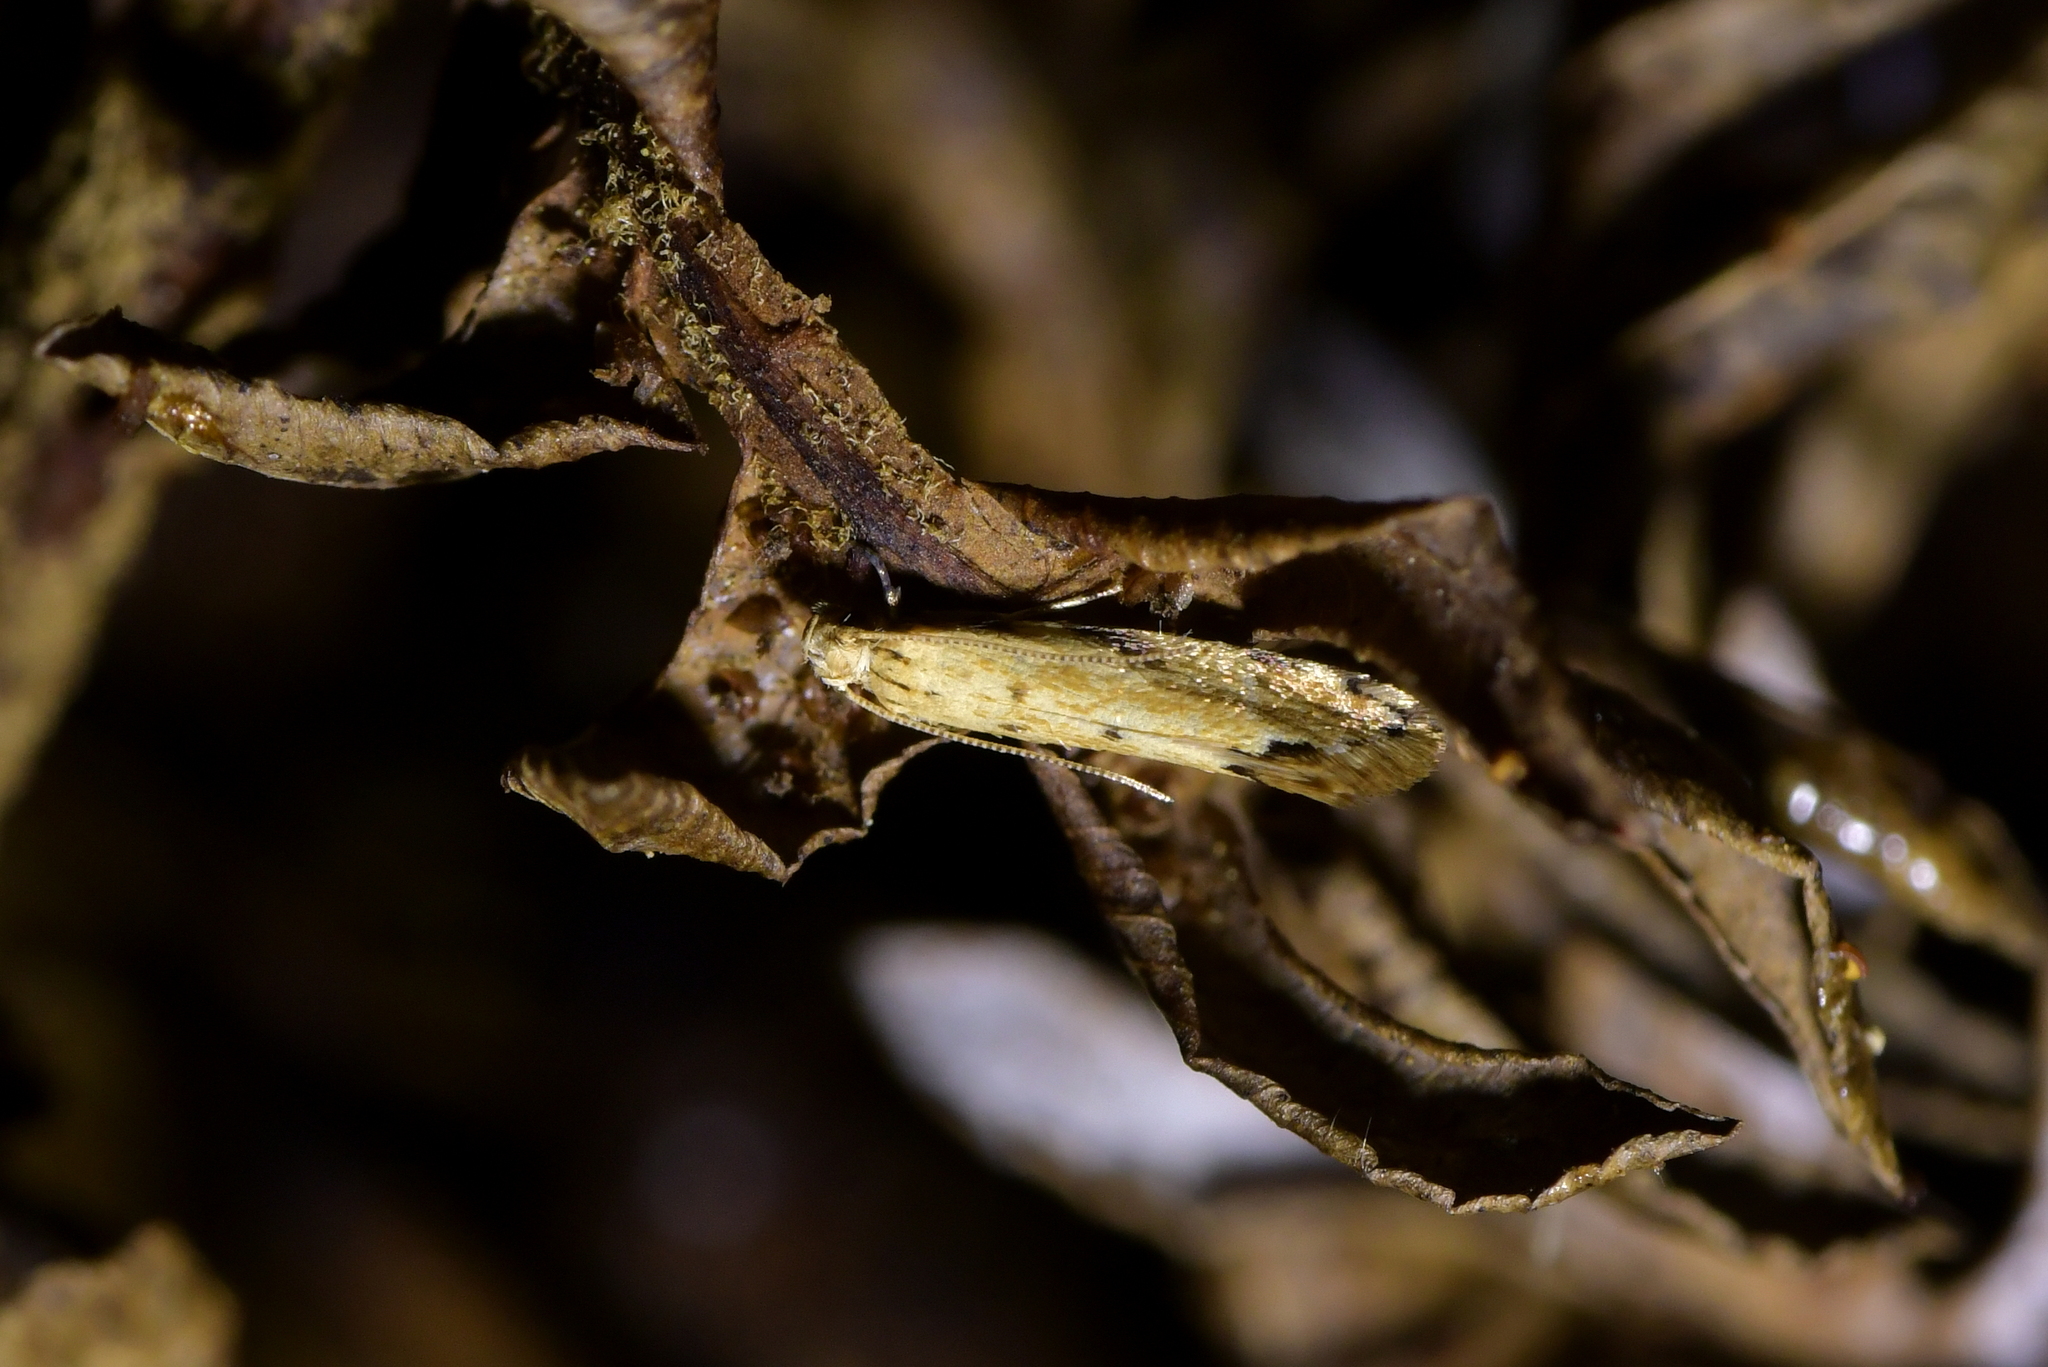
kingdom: Animalia
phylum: Arthropoda
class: Insecta
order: Lepidoptera
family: Dryadaulidae
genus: Dryadaula
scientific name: Dryadaula myrrhina
